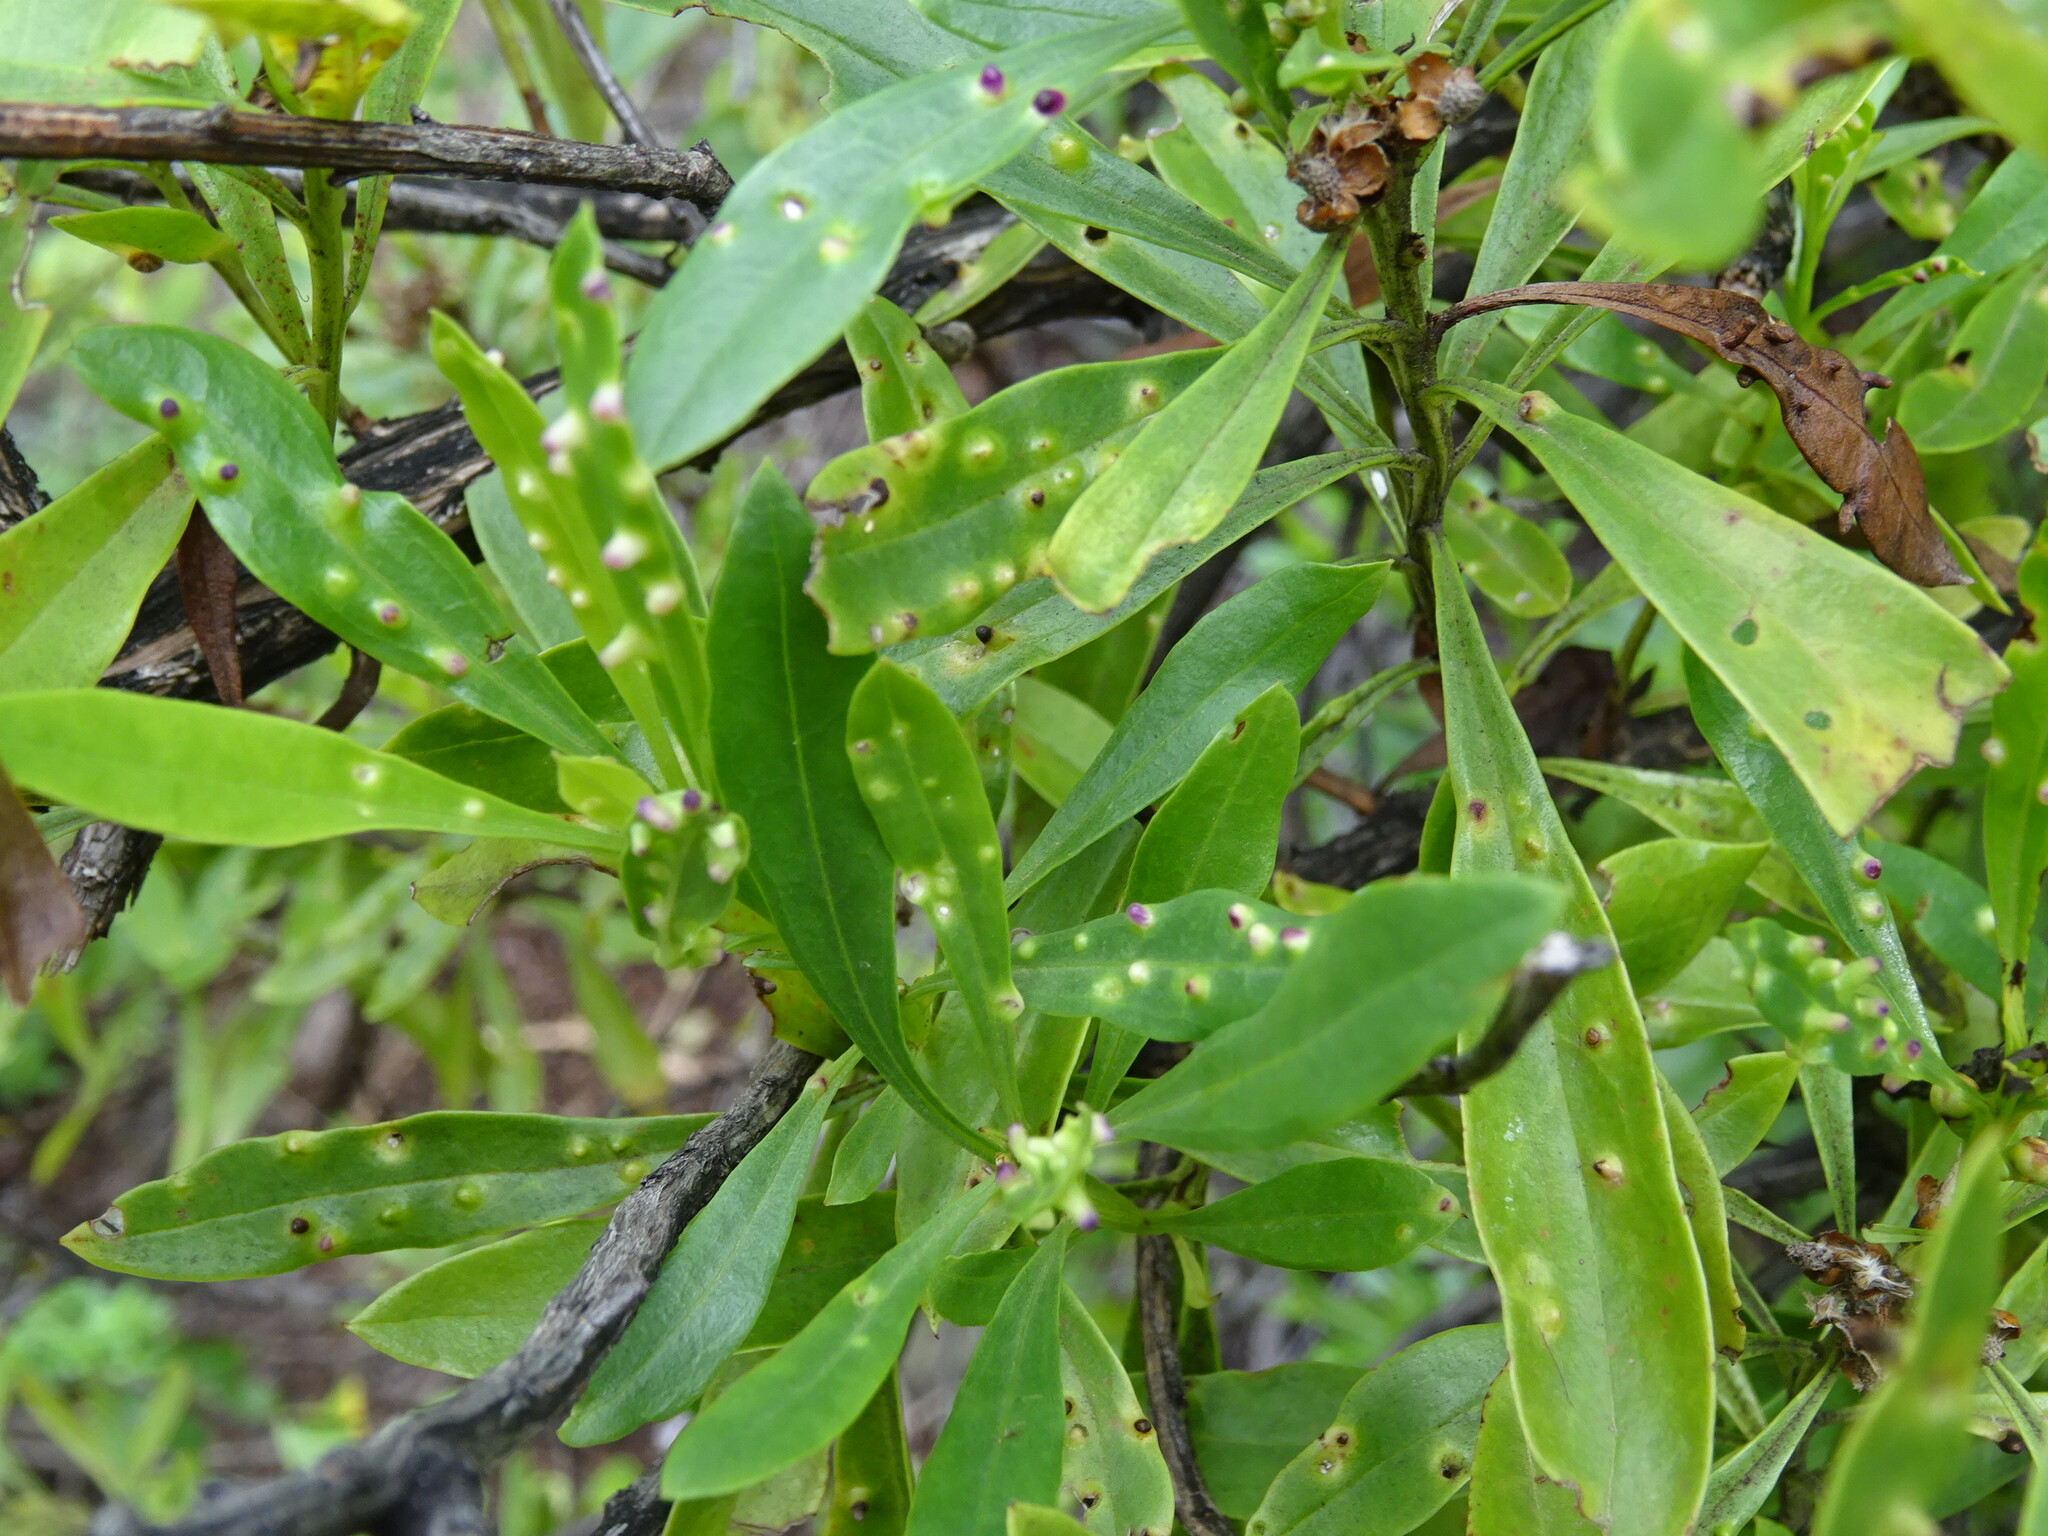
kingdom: Plantae
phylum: Tracheophyta
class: Magnoliopsida
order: Lamiales
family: Plantaginaceae
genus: Globularia
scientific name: Globularia salicina
